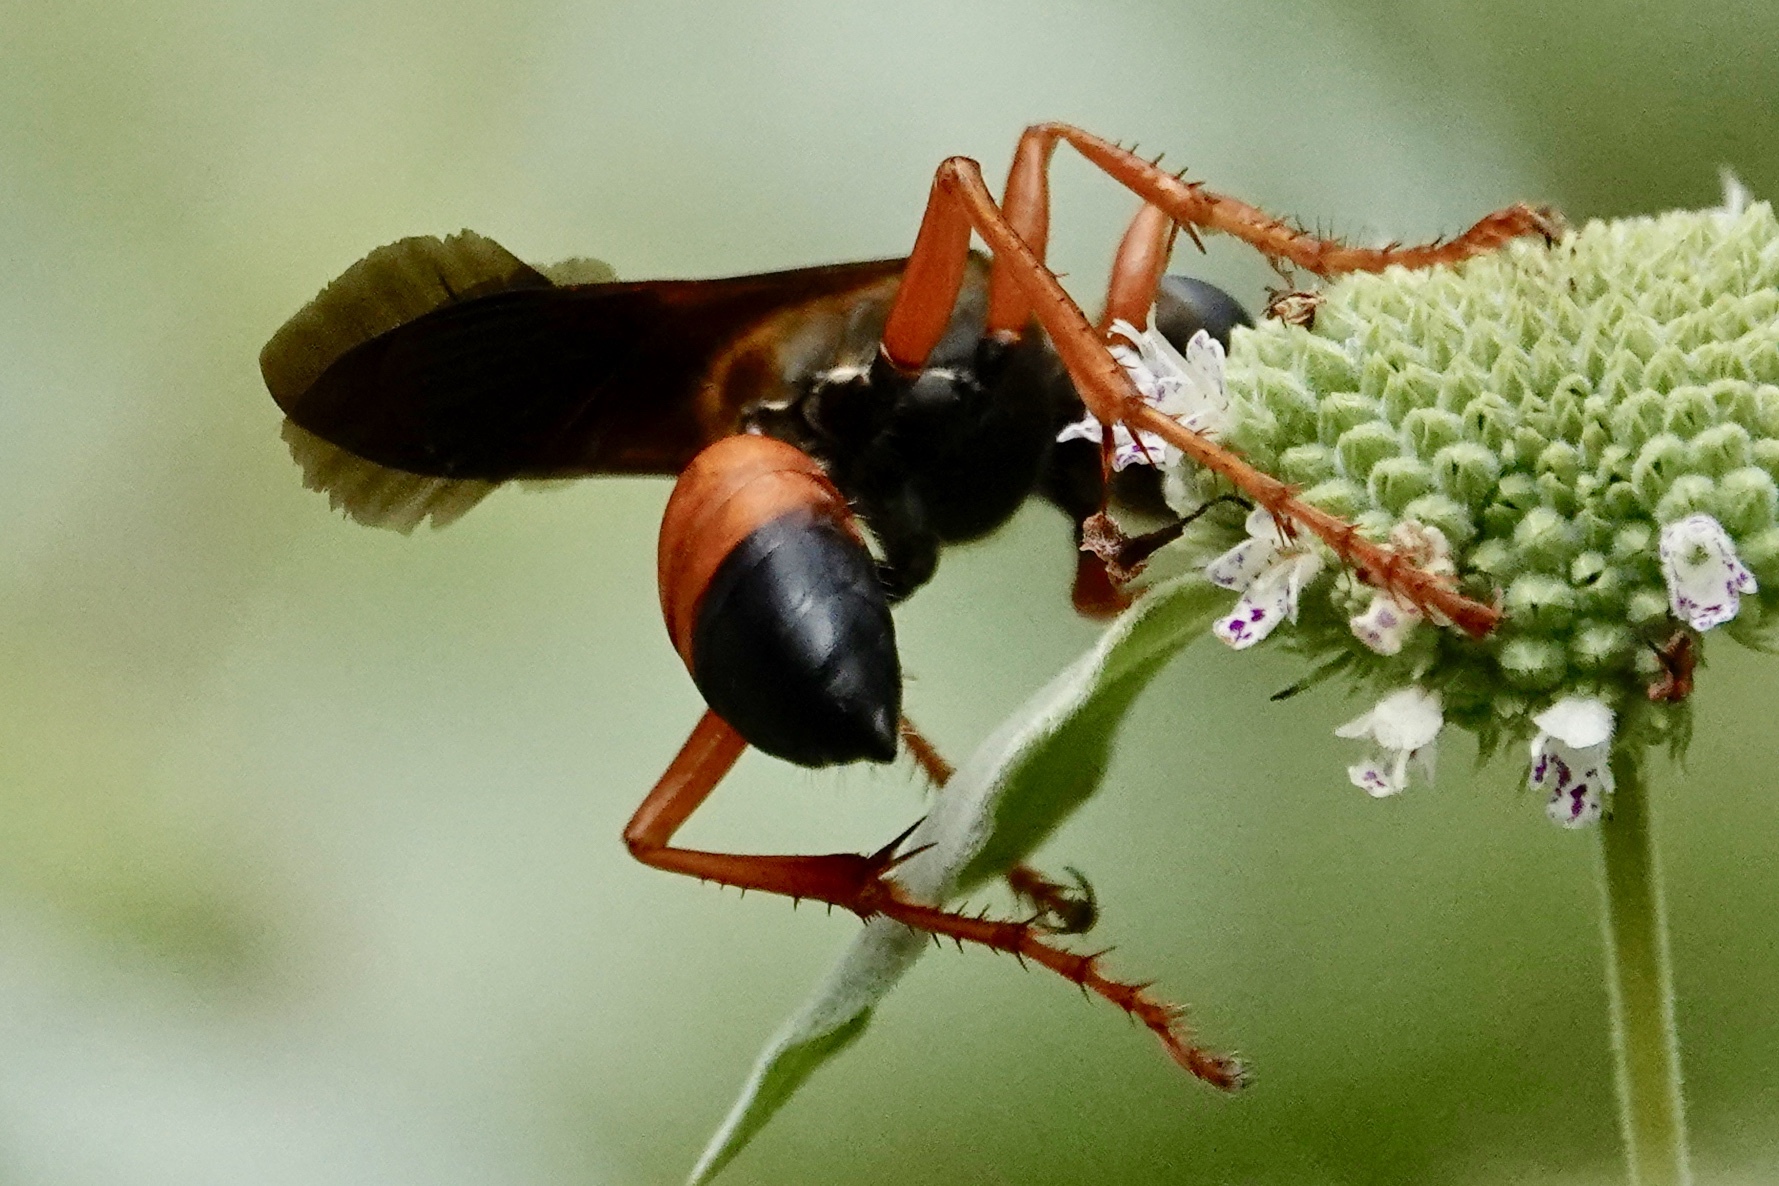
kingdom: Animalia
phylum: Arthropoda
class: Insecta
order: Hymenoptera
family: Sphecidae
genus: Sphex
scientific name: Sphex ichneumoneus
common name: Great golden digger wasp
